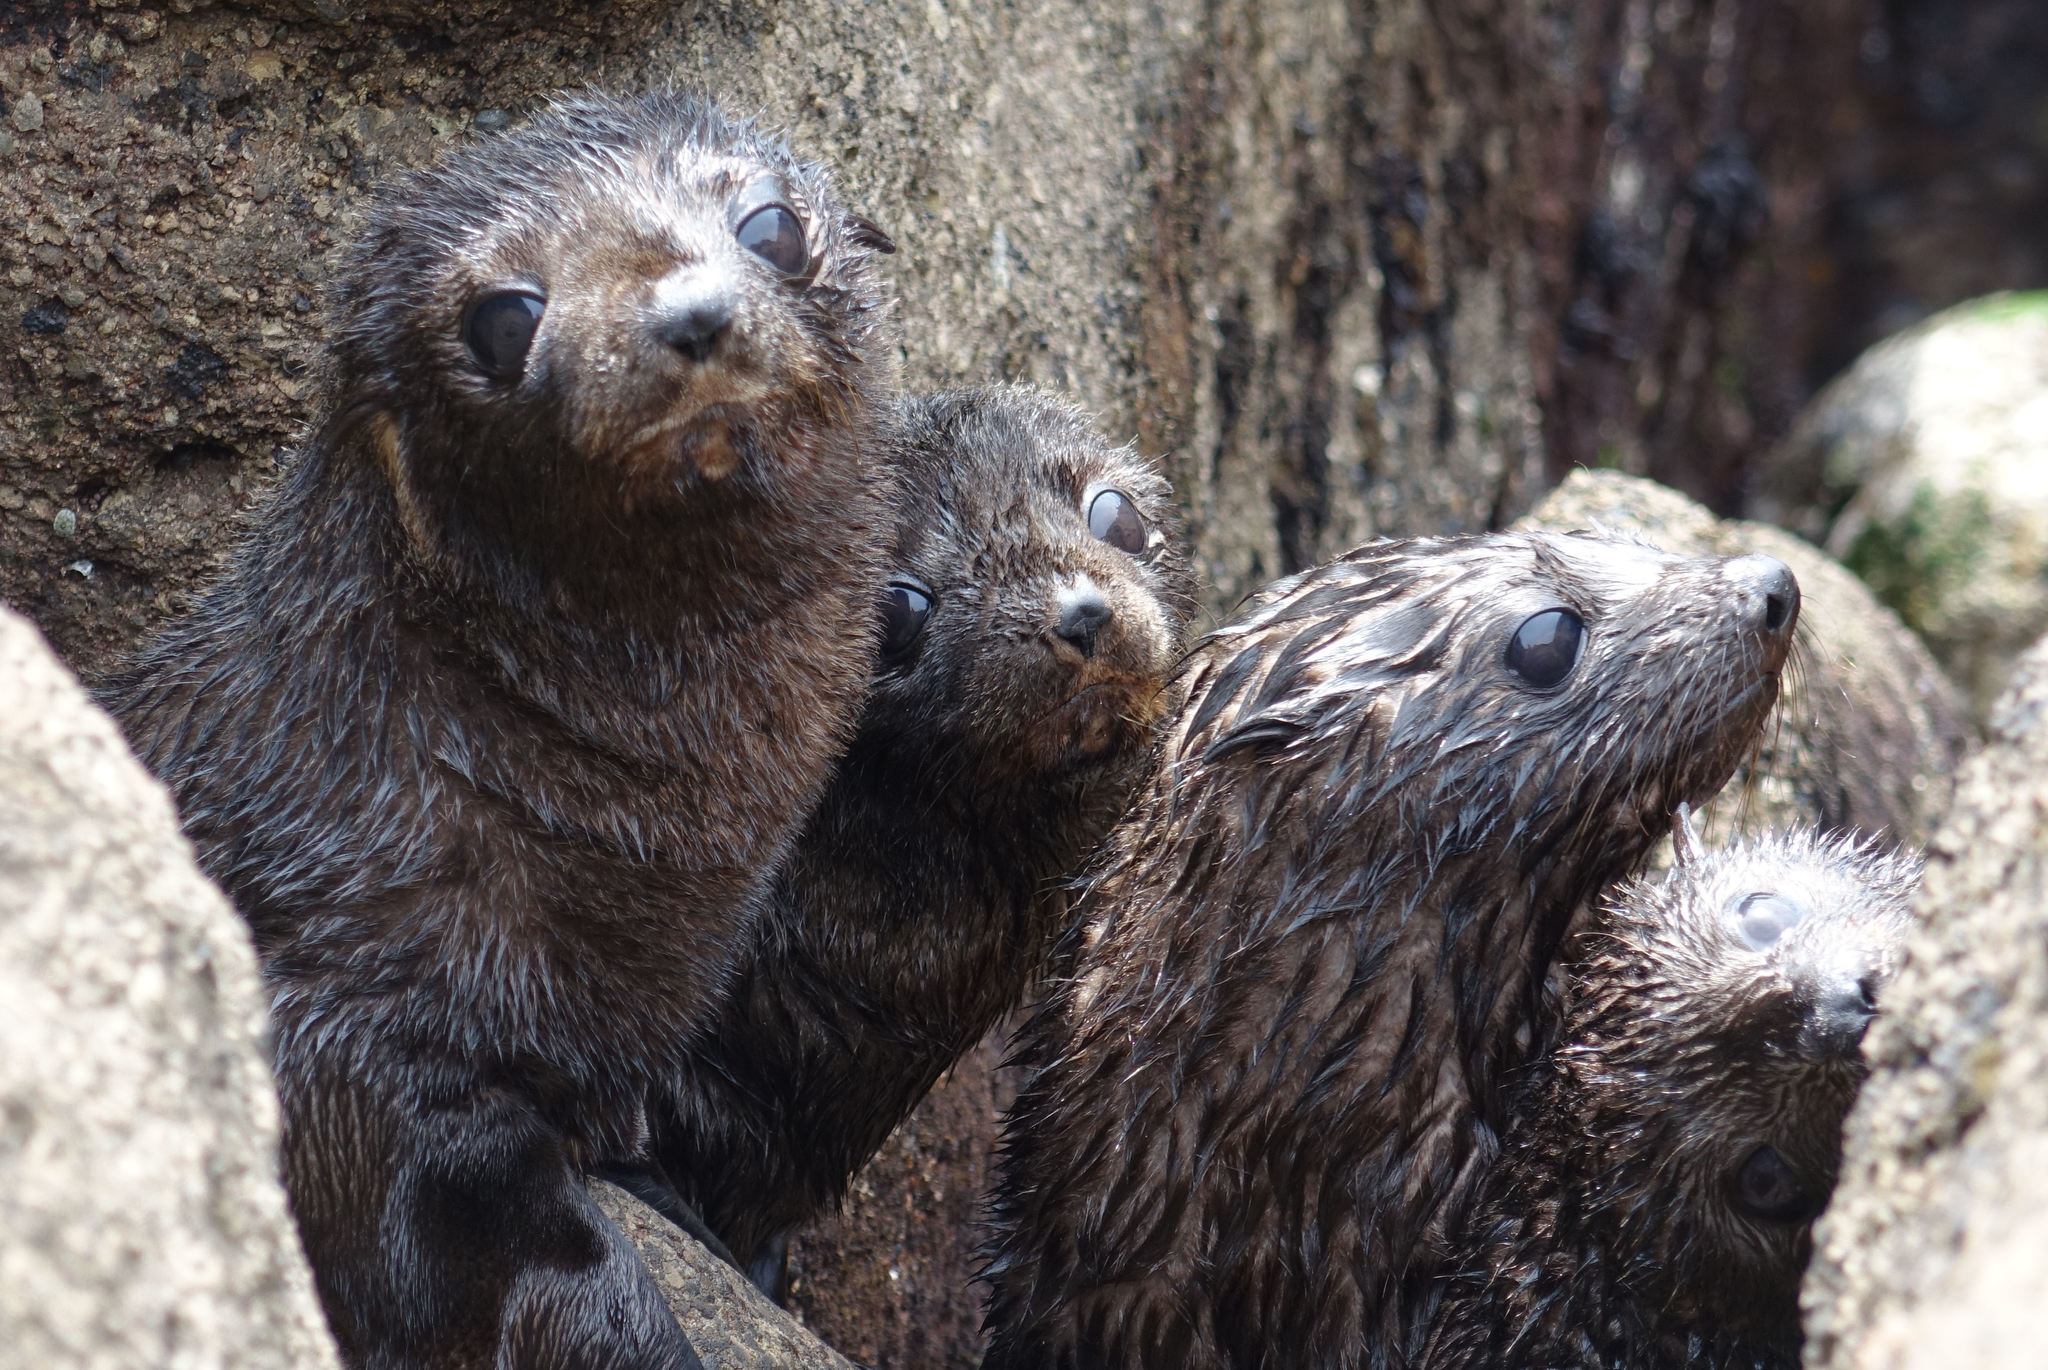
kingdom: Animalia
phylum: Chordata
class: Mammalia
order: Carnivora
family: Otariidae
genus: Arctocephalus
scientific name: Arctocephalus forsteri
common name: New zealand fur seal
